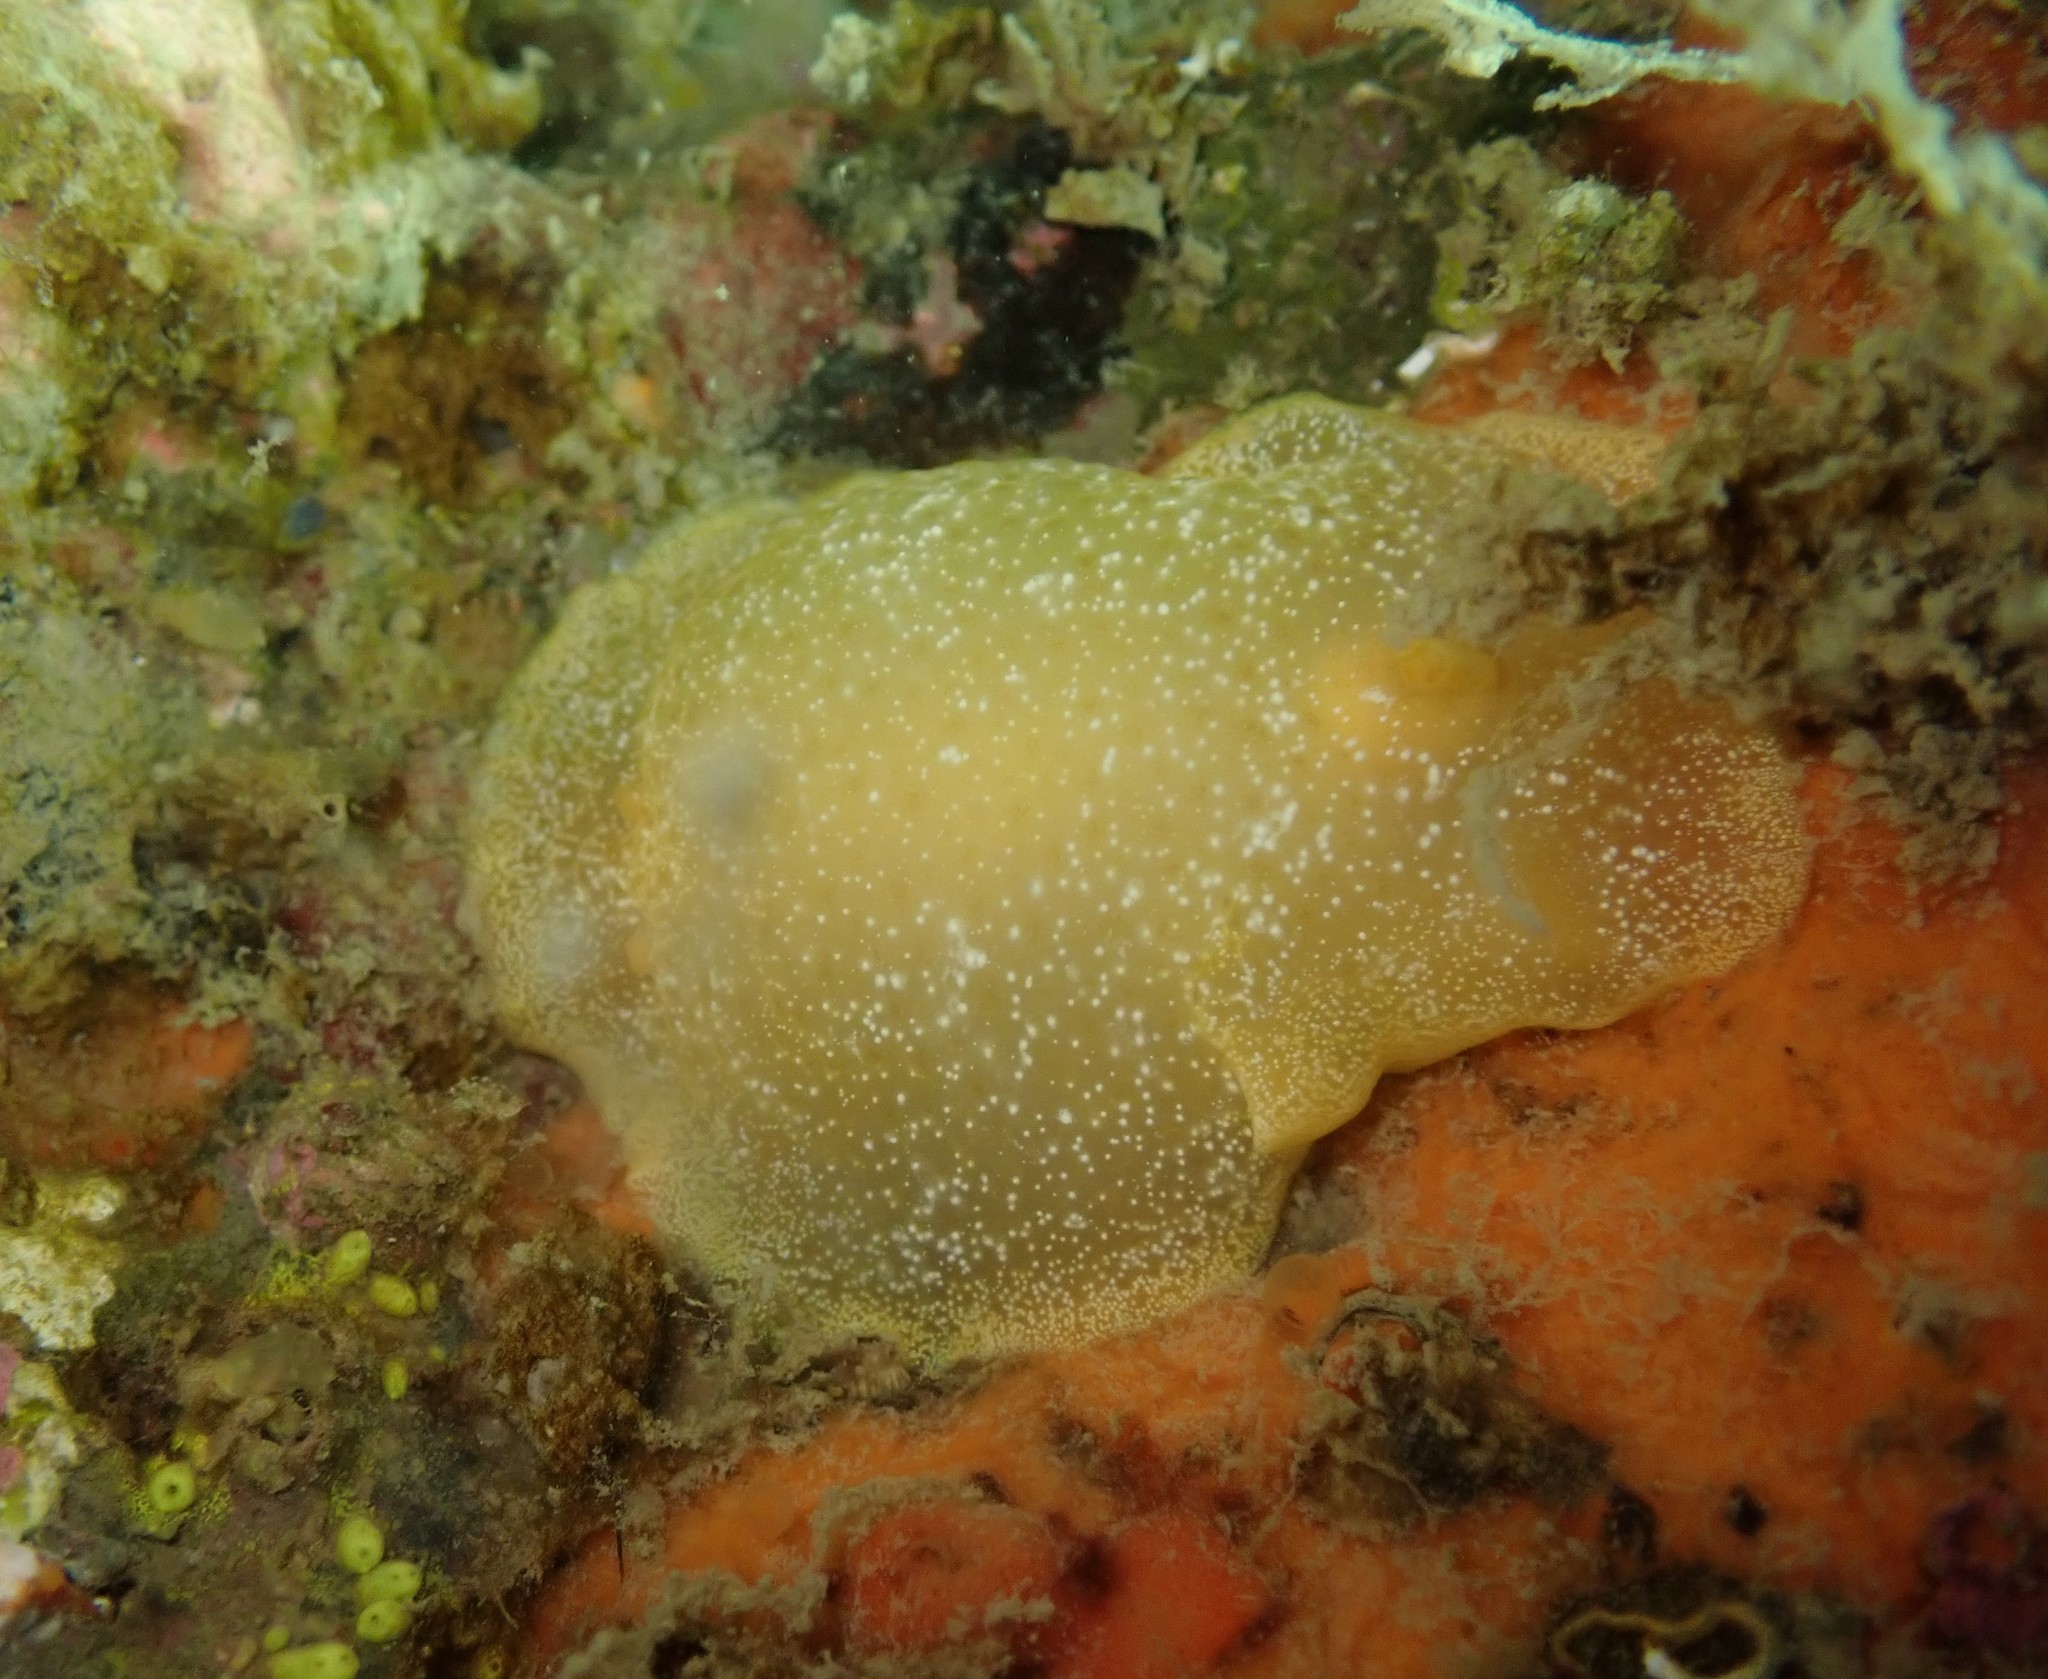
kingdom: Animalia
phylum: Mollusca
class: Gastropoda
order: Nudibranchia
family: Dendrodorididae
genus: Dendrodoris
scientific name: Dendrodoris citrina
